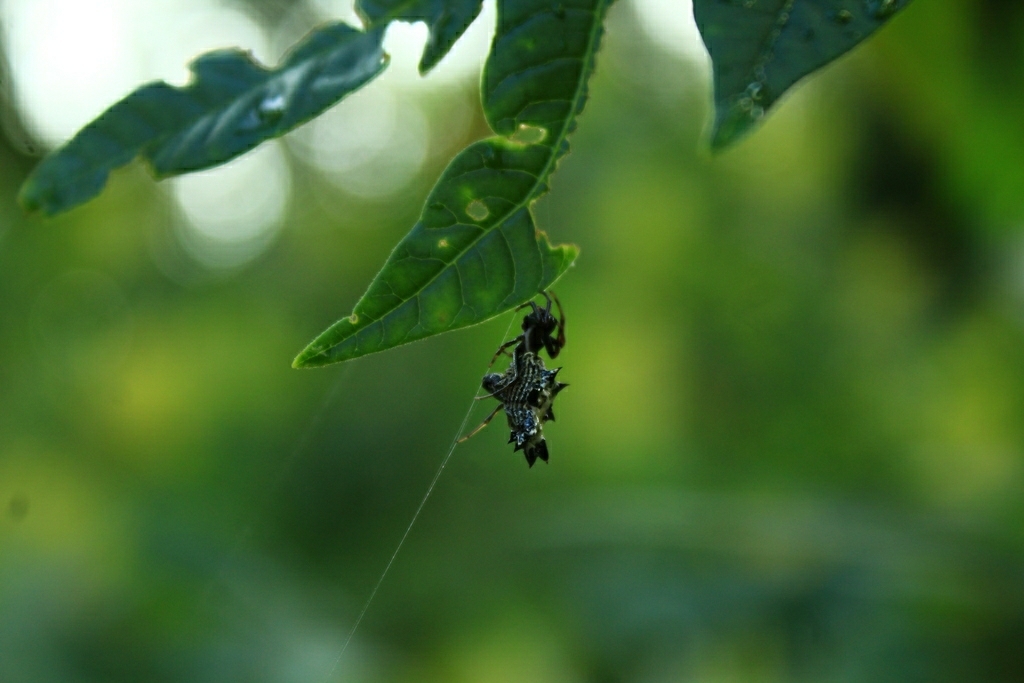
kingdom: Animalia
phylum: Arthropoda
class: Arachnida
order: Araneae
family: Araneidae
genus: Micrathena
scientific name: Micrathena gracilis
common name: Orb weavers
